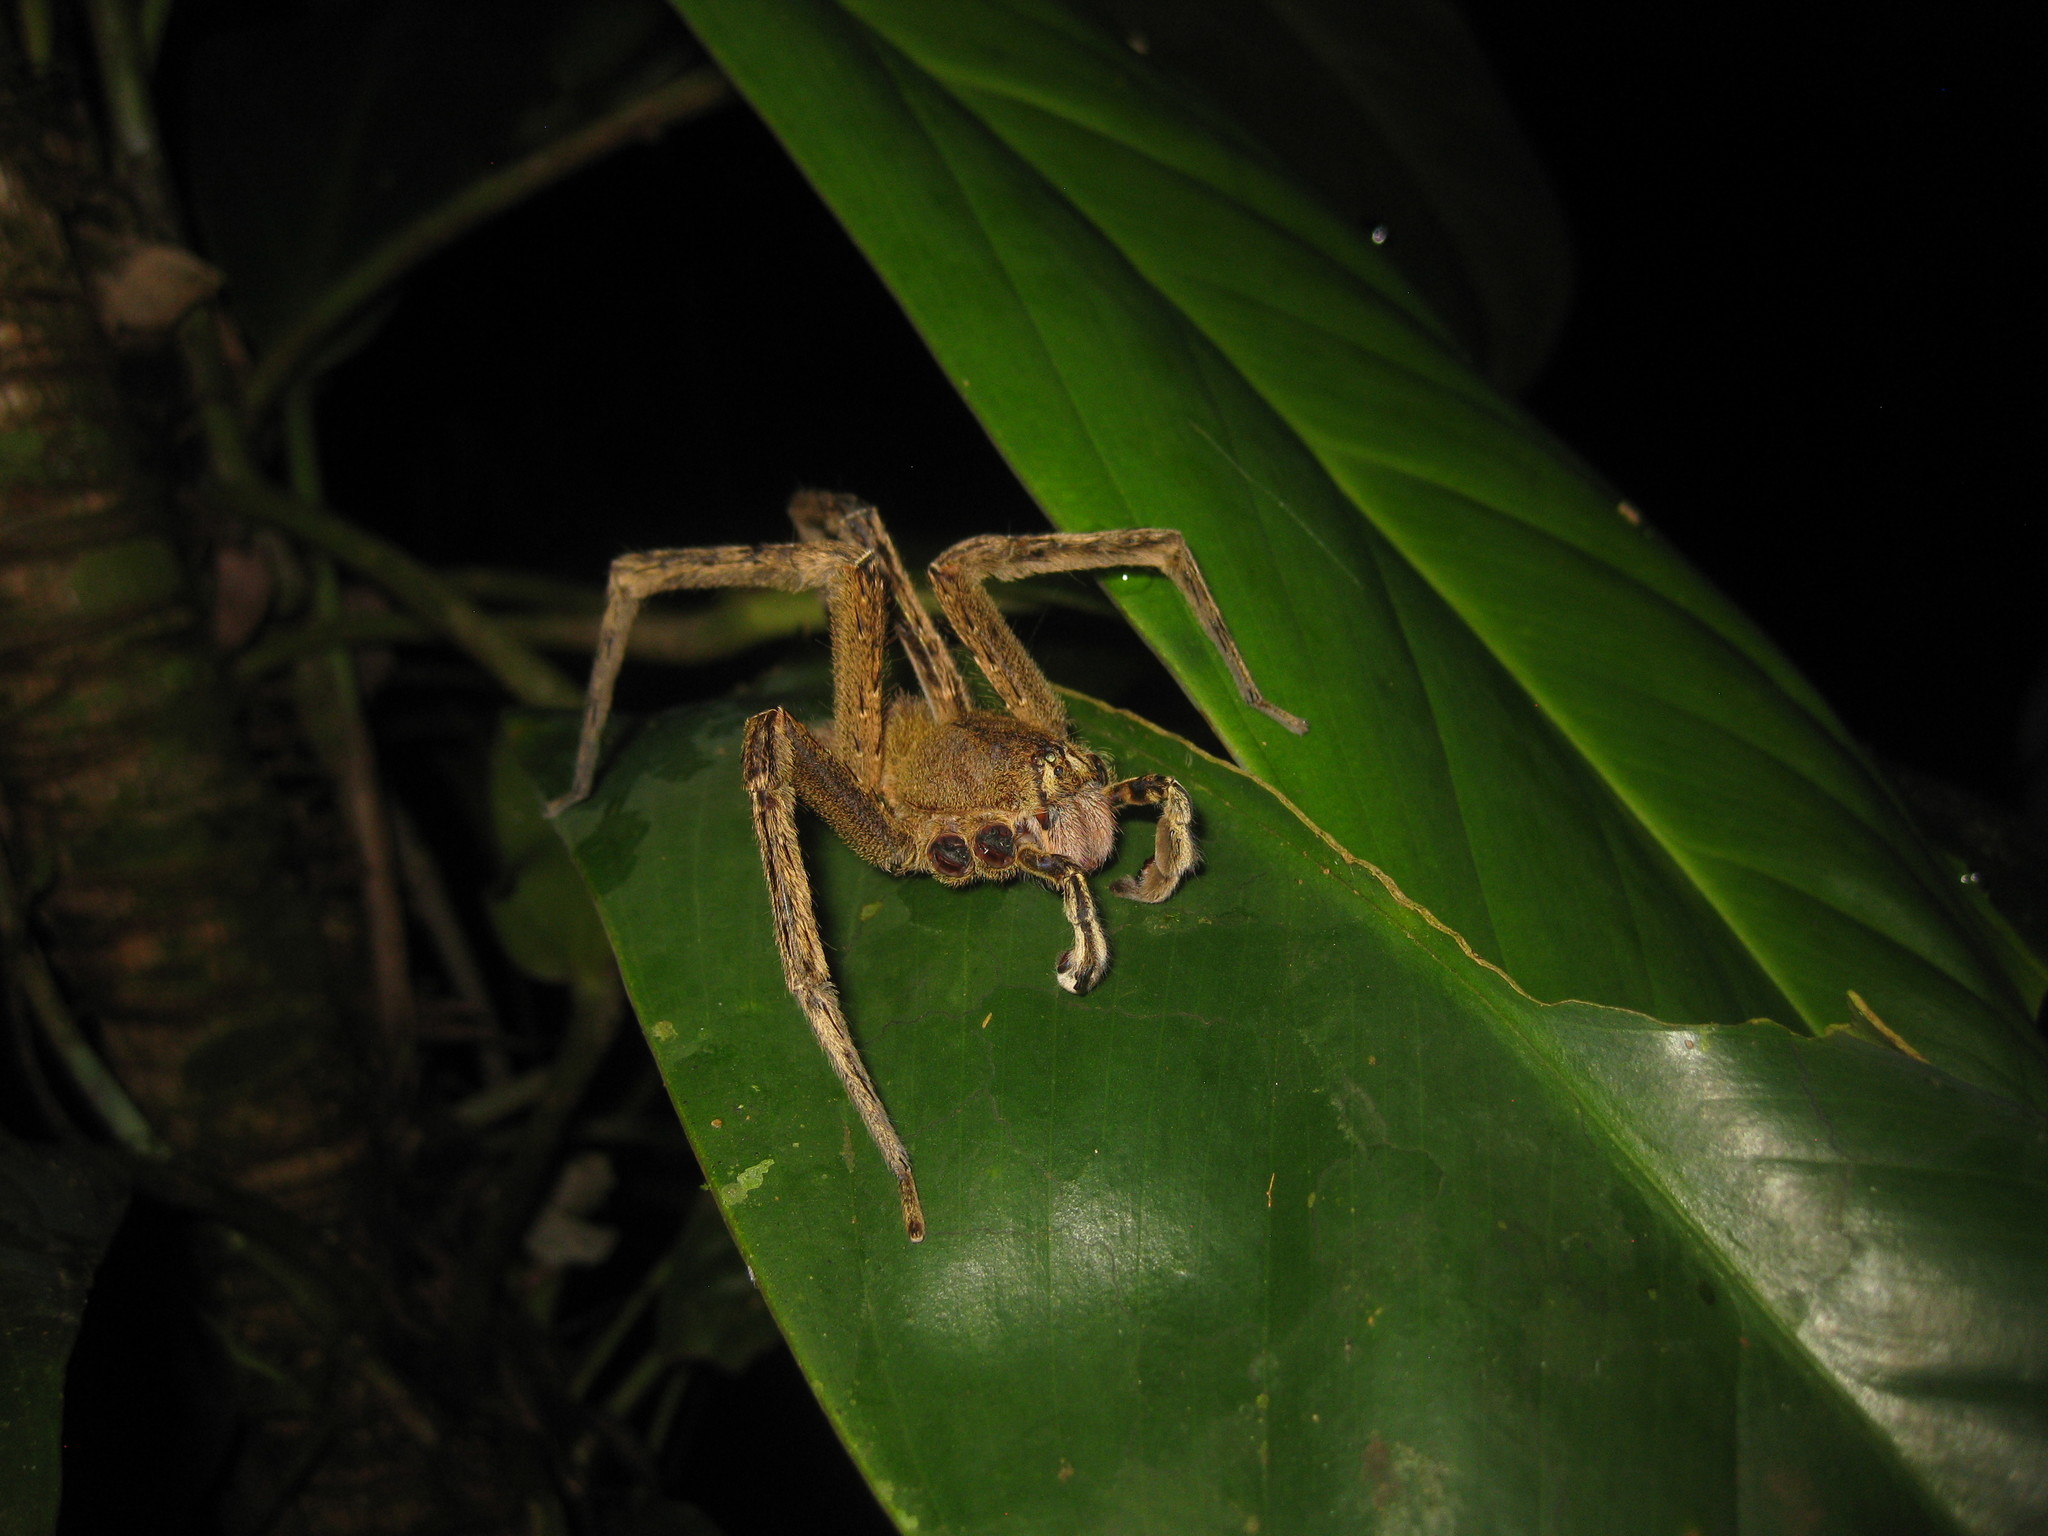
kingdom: Animalia
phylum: Arthropoda
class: Arachnida
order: Araneae
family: Ctenidae
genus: Phoneutria
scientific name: Phoneutria fera
